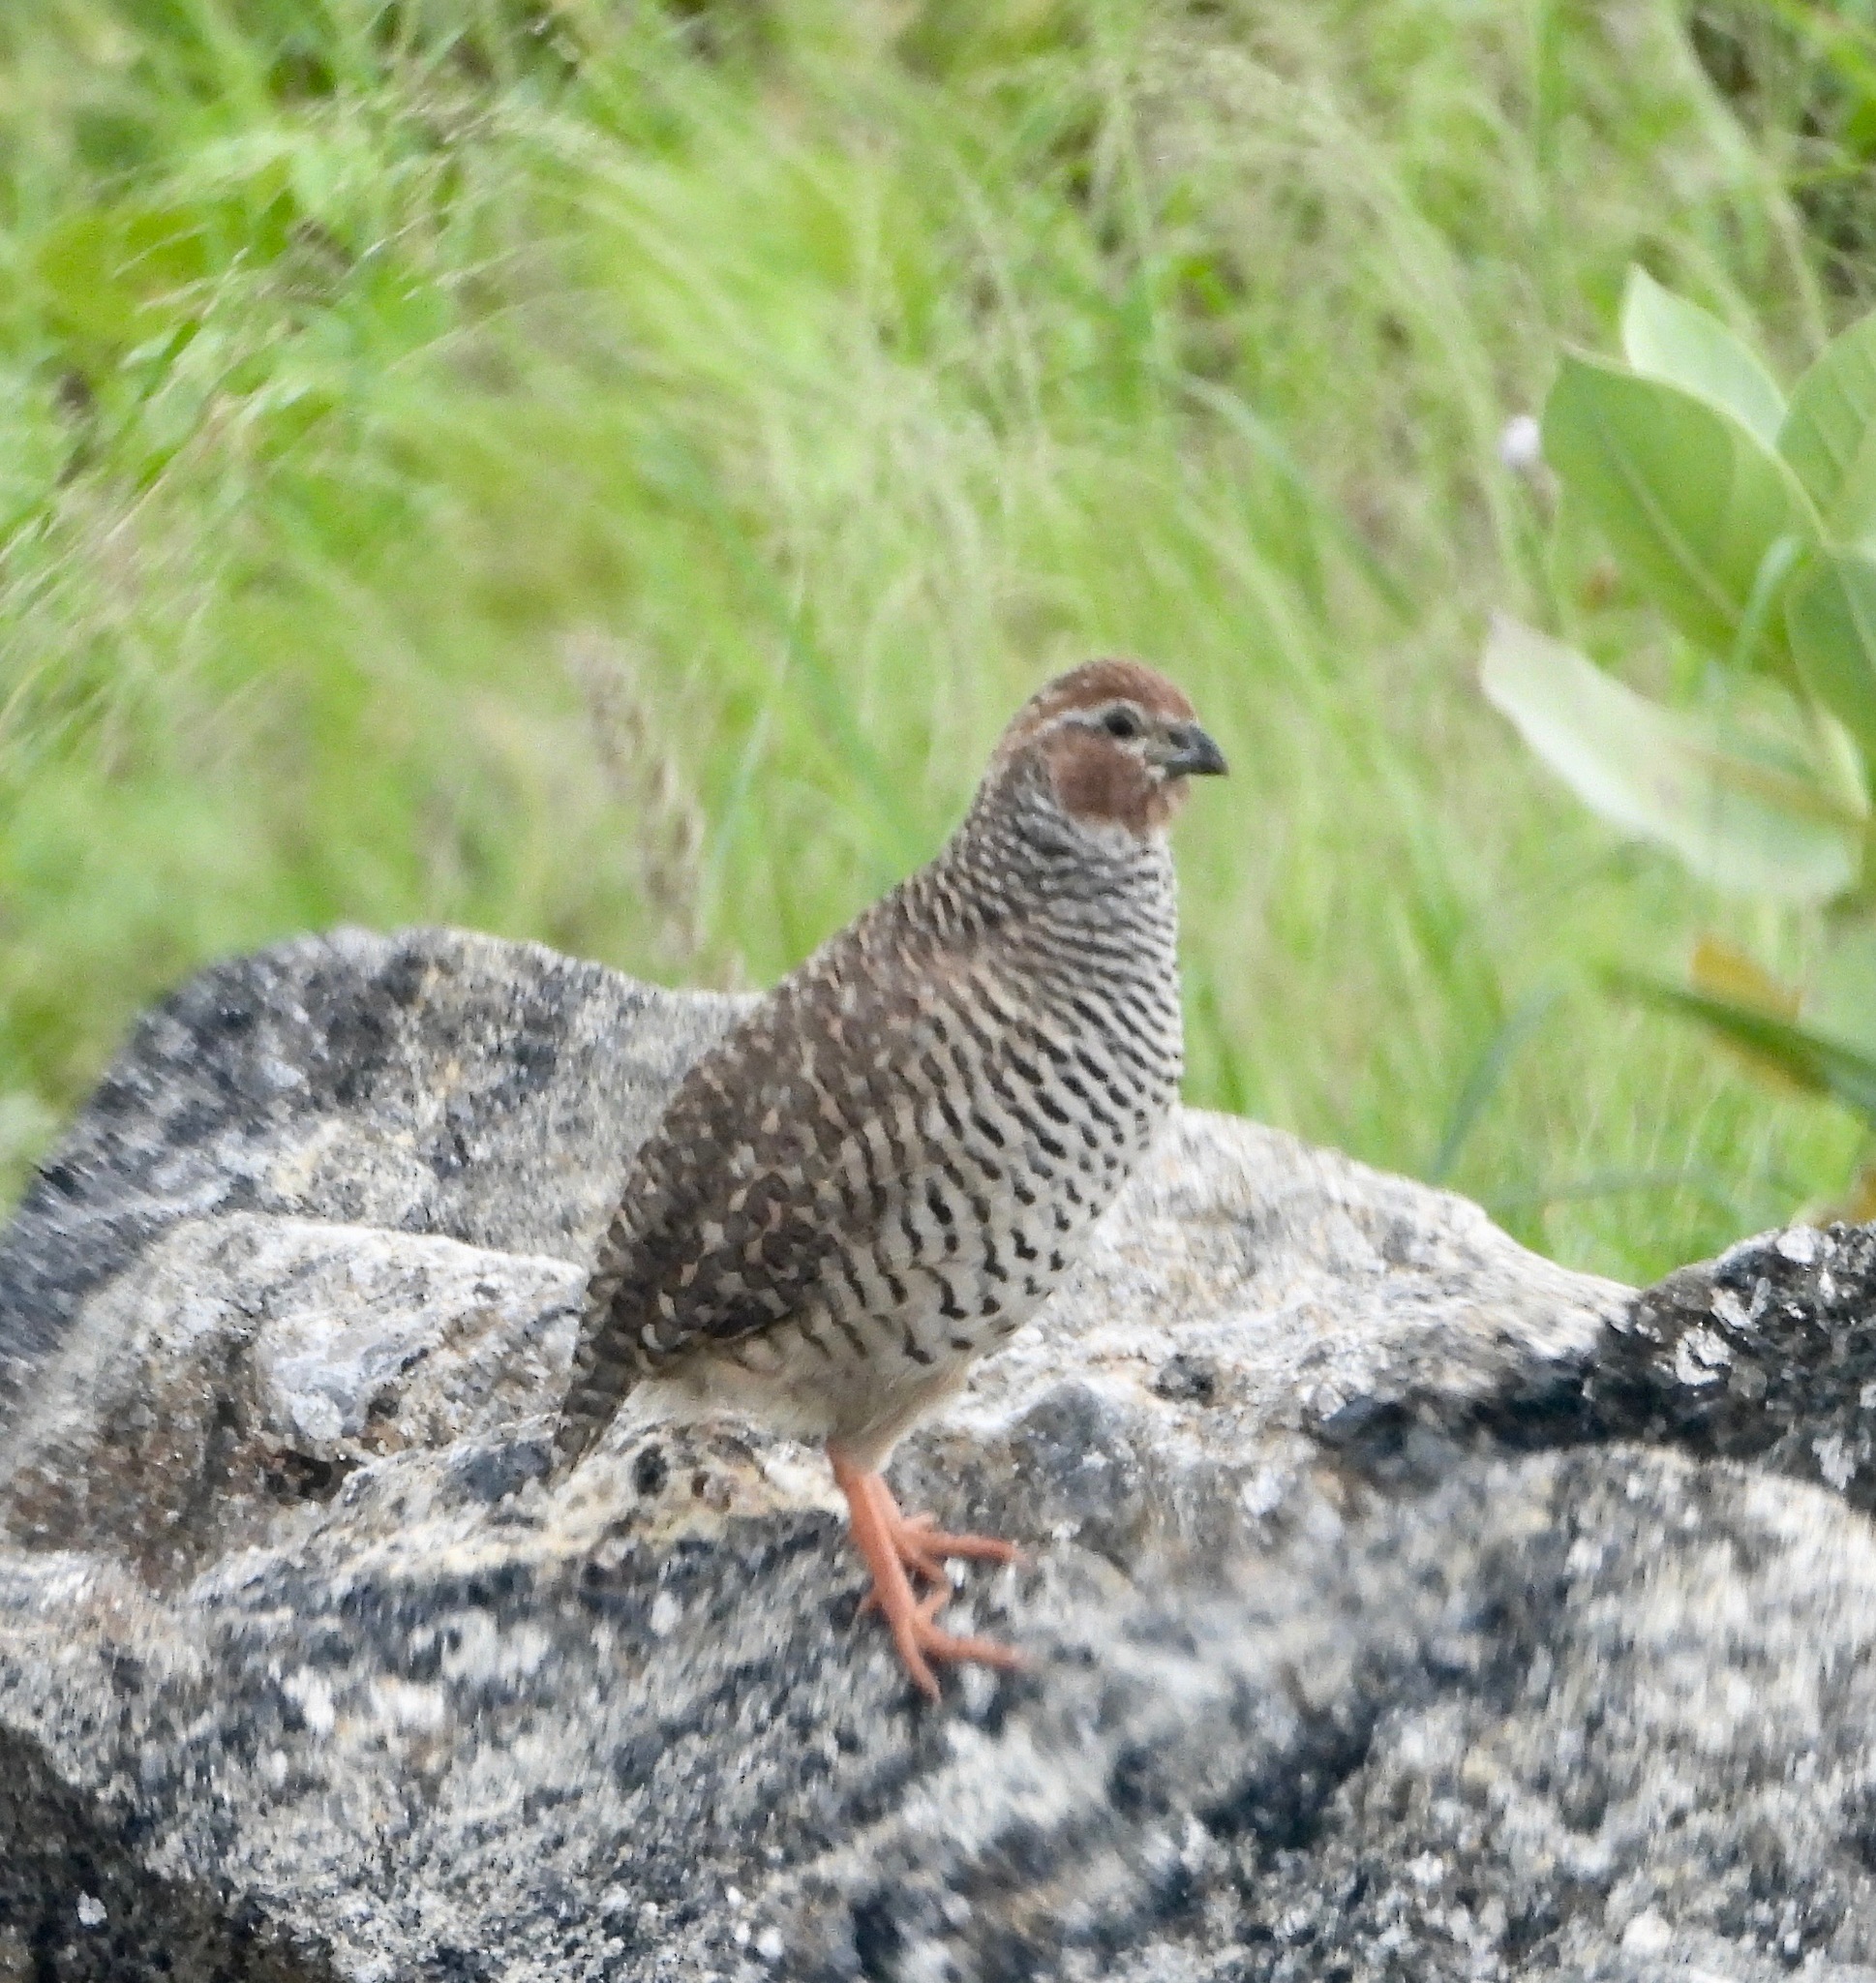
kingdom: Animalia
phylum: Chordata
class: Aves
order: Galliformes
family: Phasianidae
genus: Perdicula
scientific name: Perdicula argoondah
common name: Rock bush-quail
